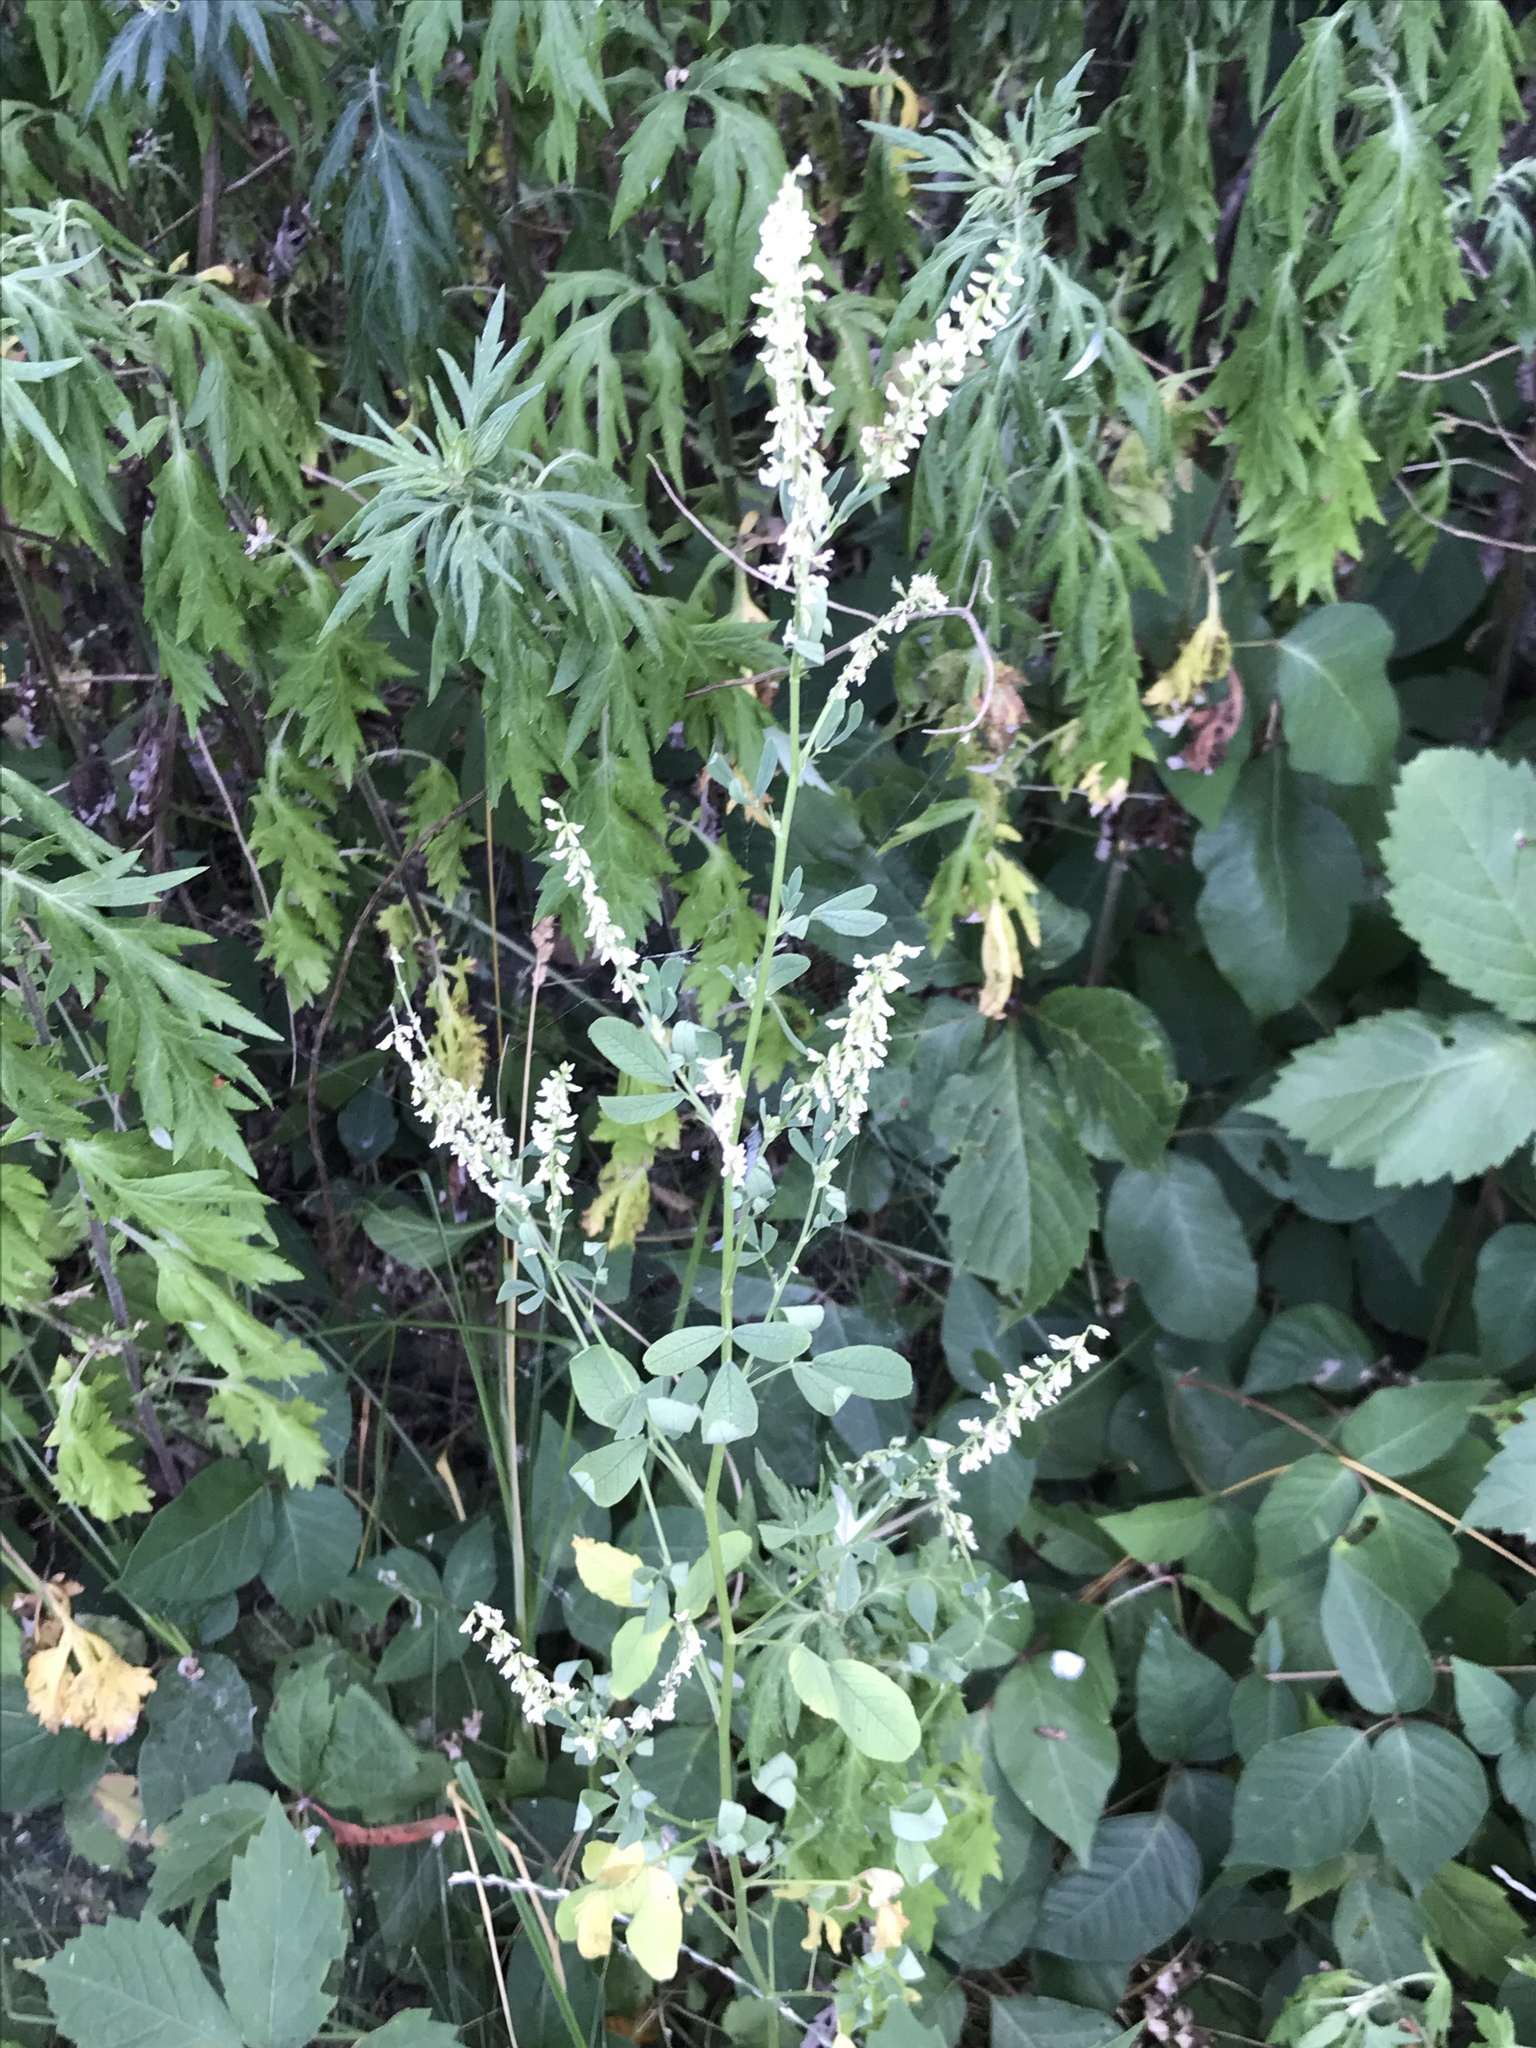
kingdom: Plantae
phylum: Tracheophyta
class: Magnoliopsida
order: Fabales
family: Fabaceae
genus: Melilotus
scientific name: Melilotus albus
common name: White melilot
